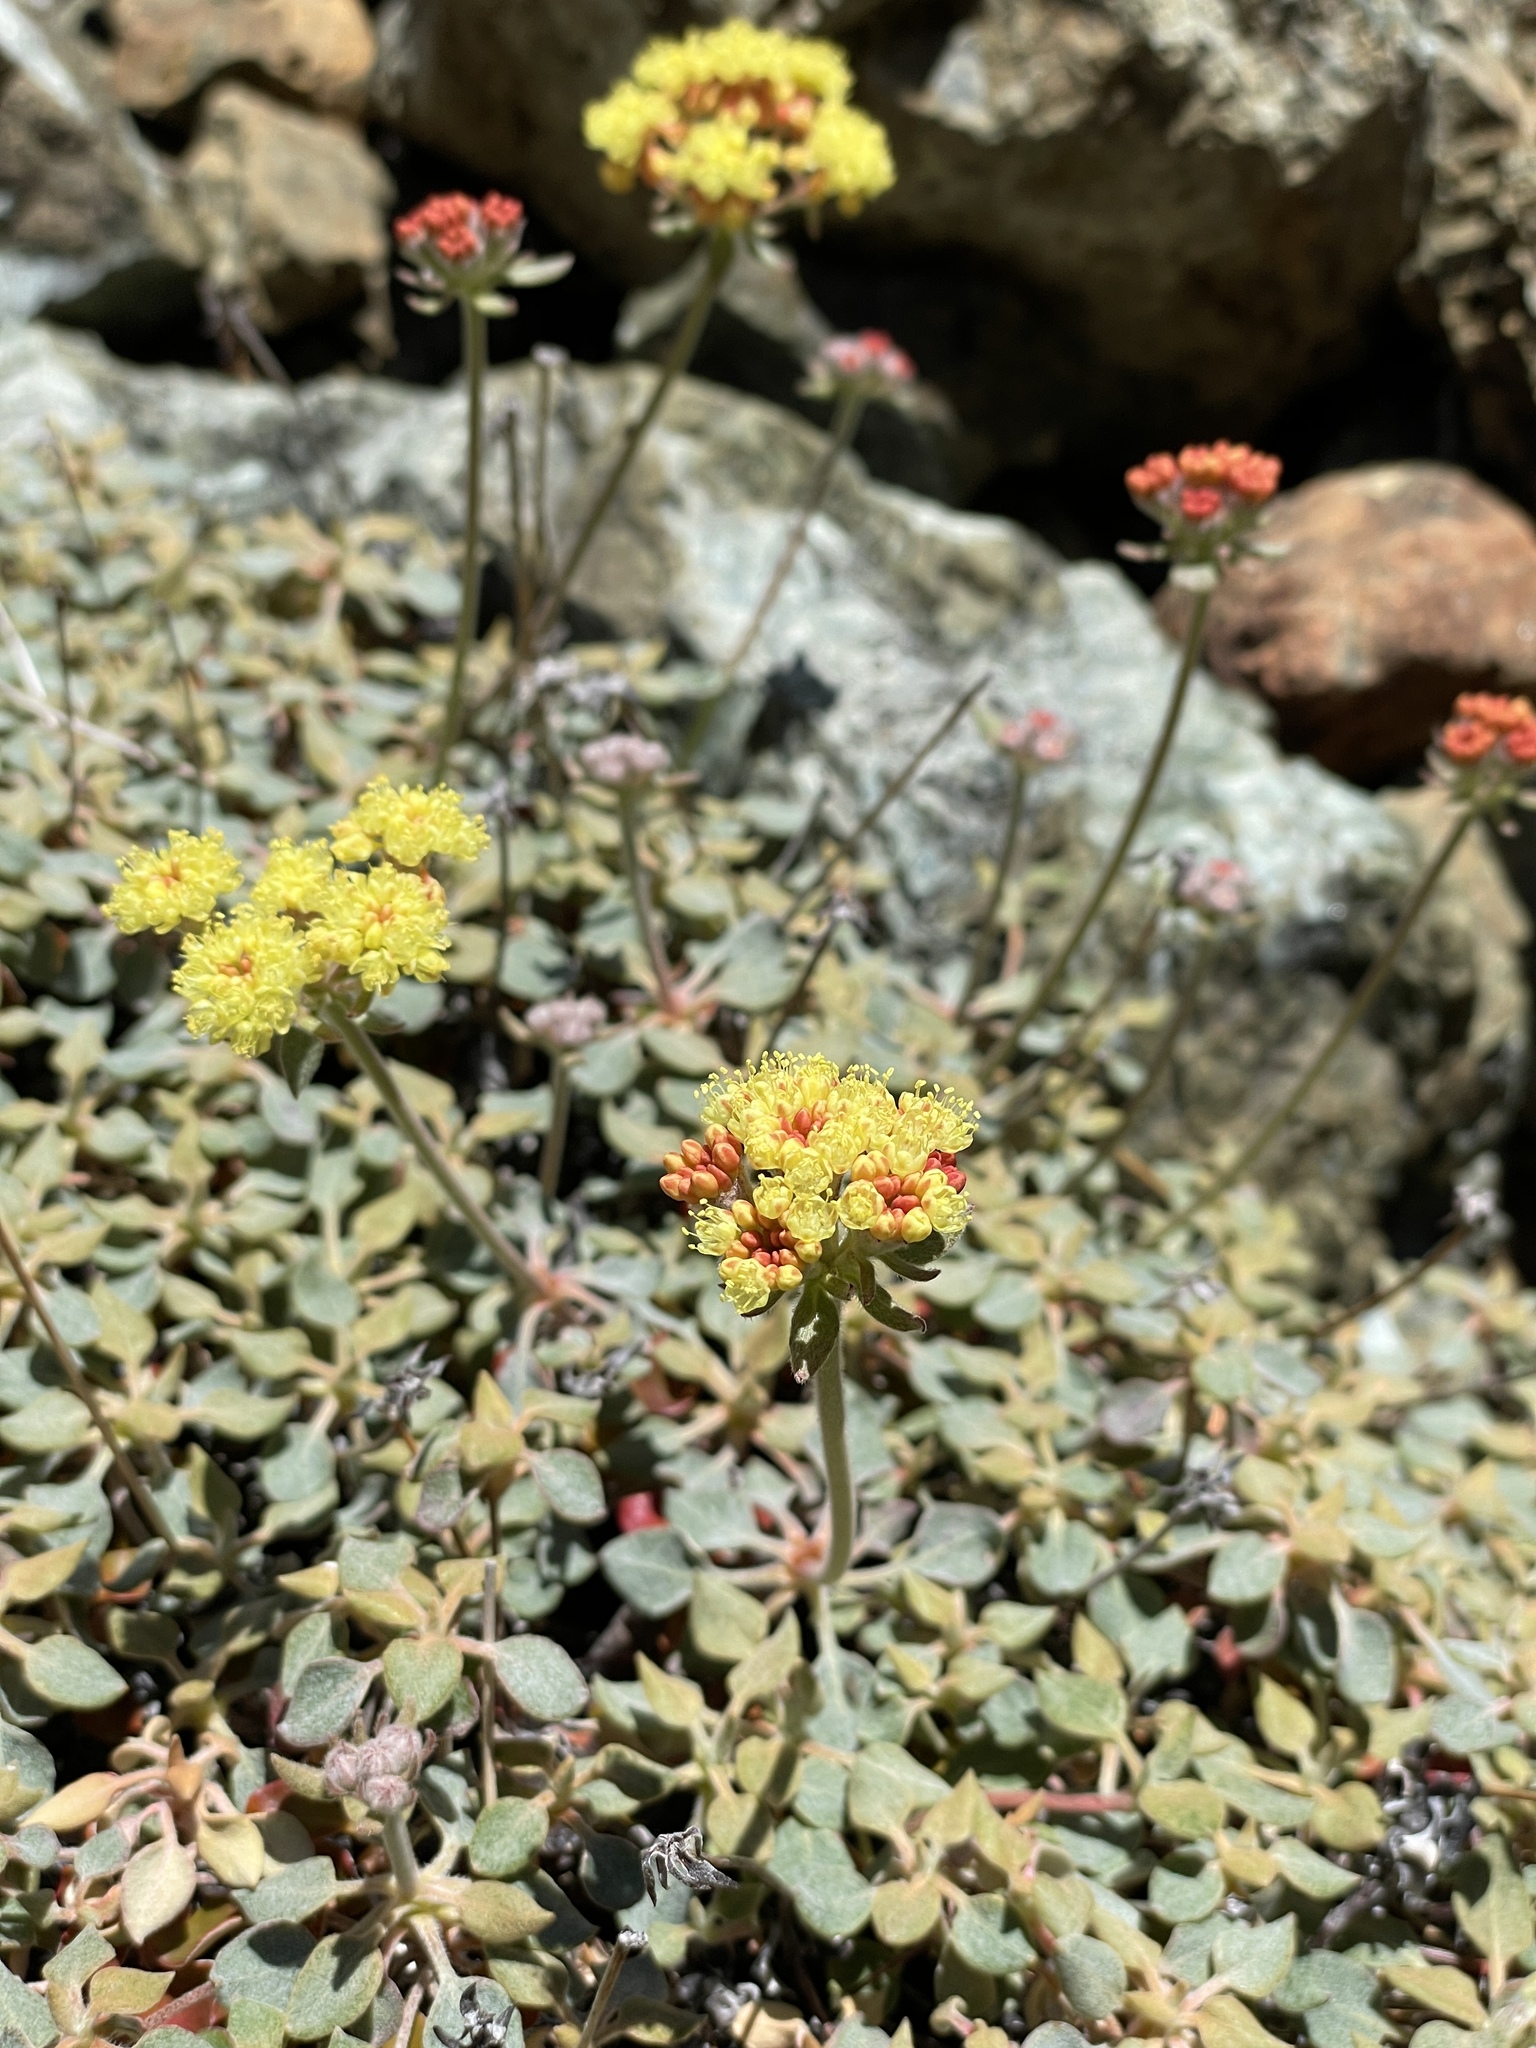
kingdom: Plantae
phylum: Tracheophyta
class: Magnoliopsida
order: Caryophyllales
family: Polygonaceae
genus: Eriogonum
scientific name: Eriogonum cedrorum
